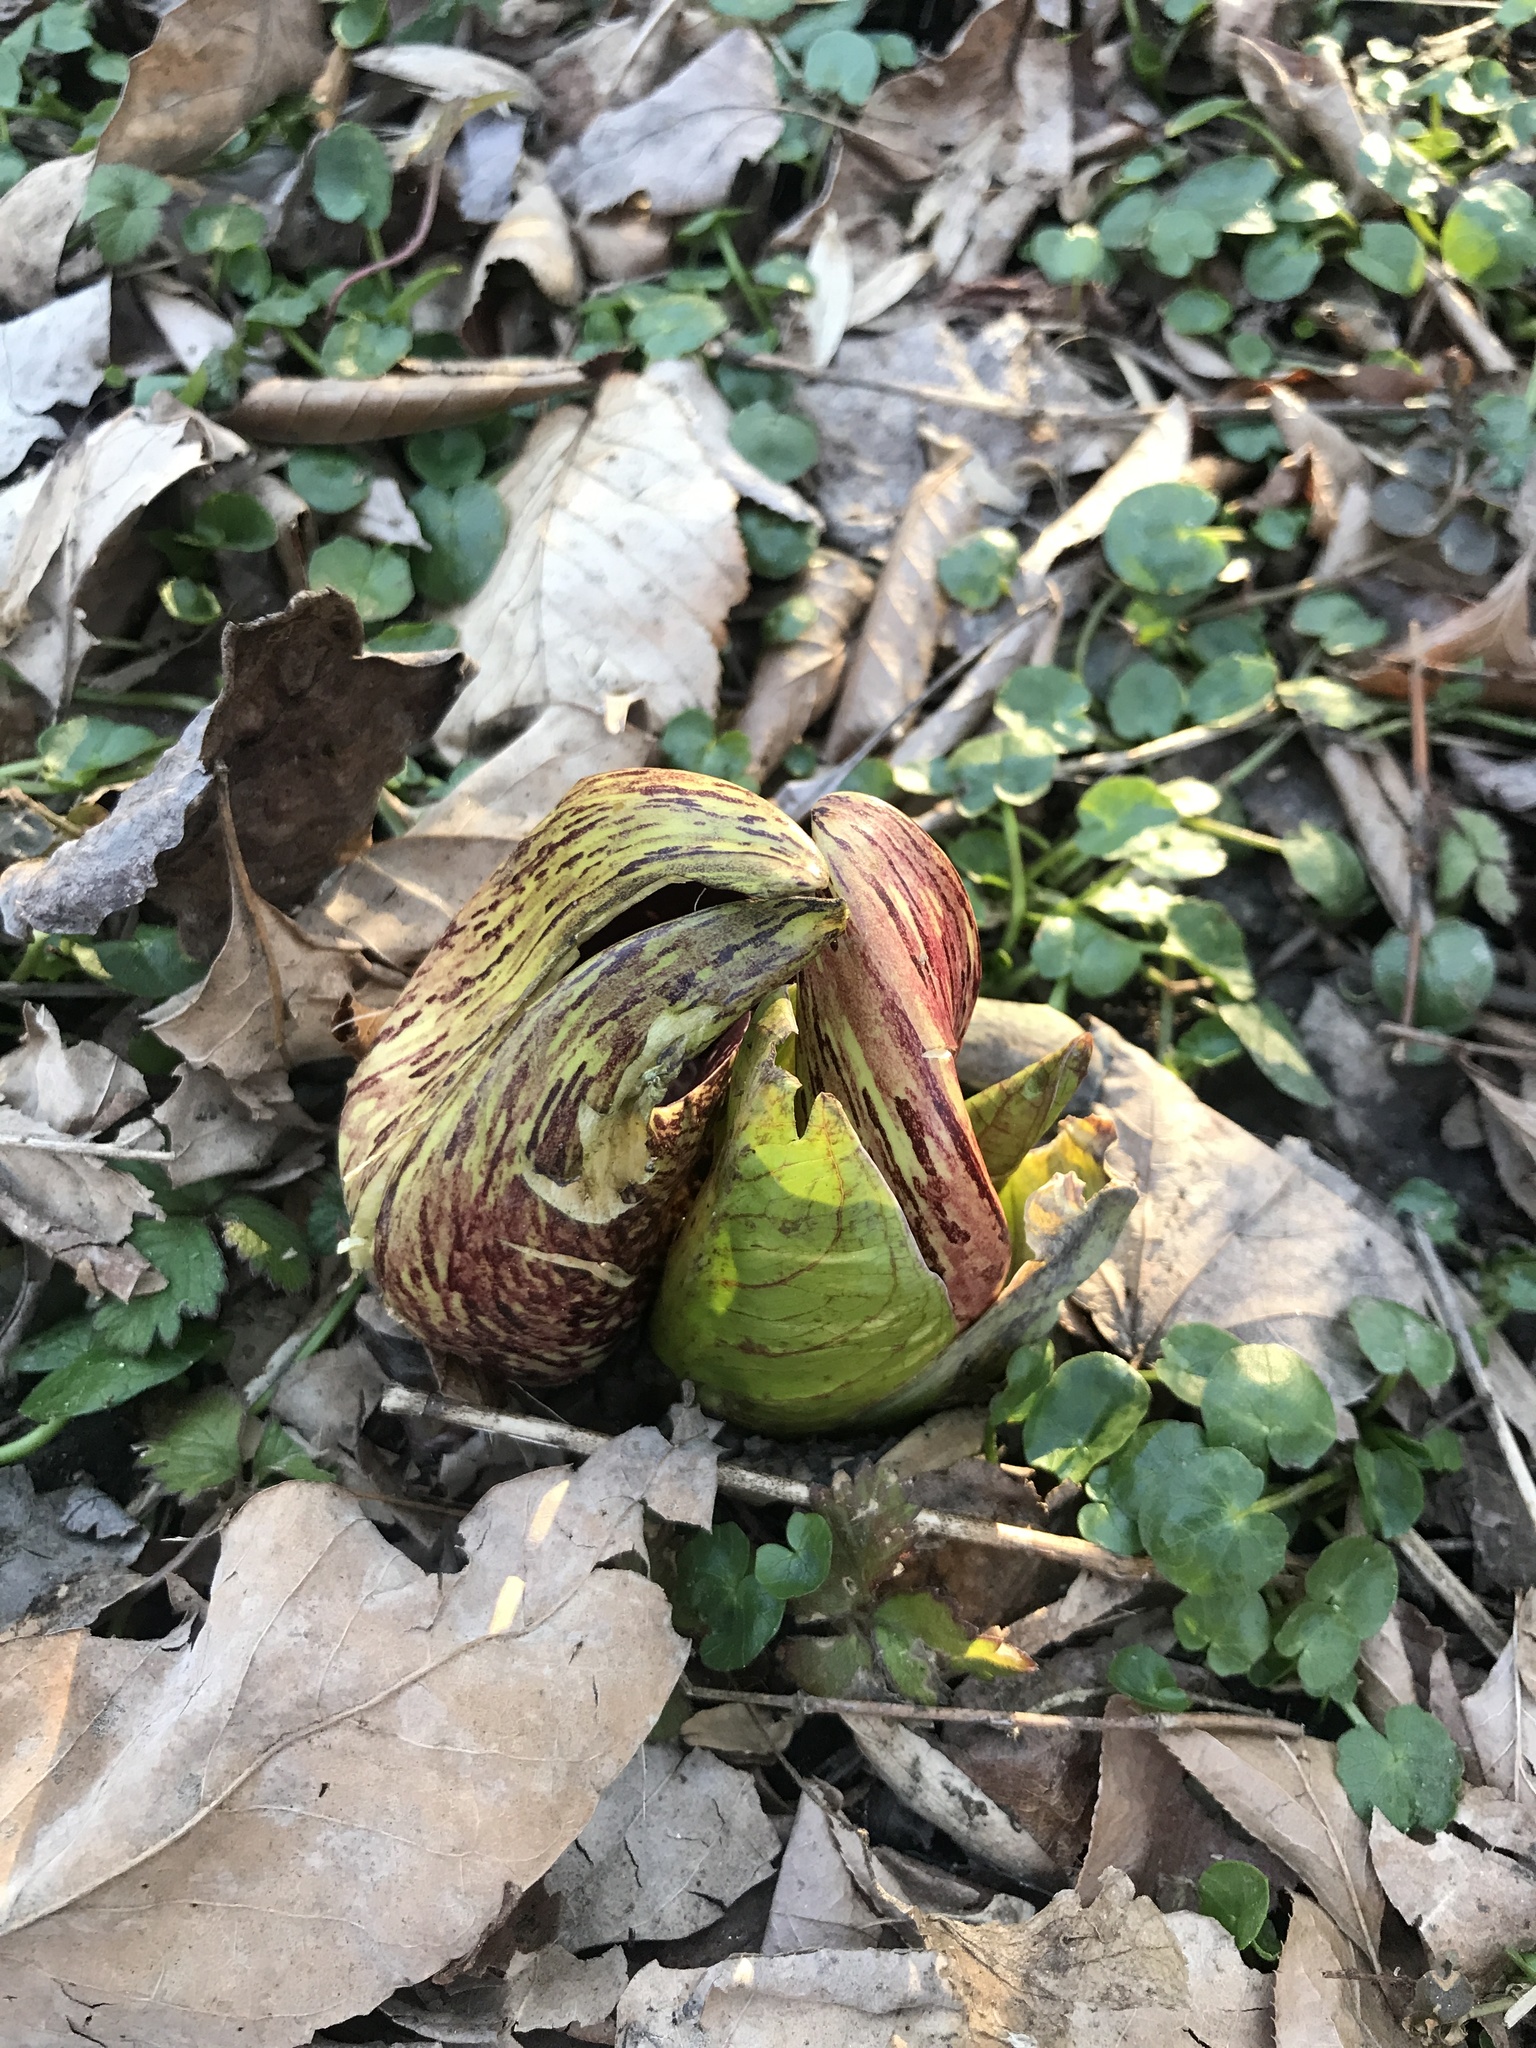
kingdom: Plantae
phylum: Tracheophyta
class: Liliopsida
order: Alismatales
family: Araceae
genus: Symplocarpus
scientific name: Symplocarpus foetidus
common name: Eastern skunk cabbage
